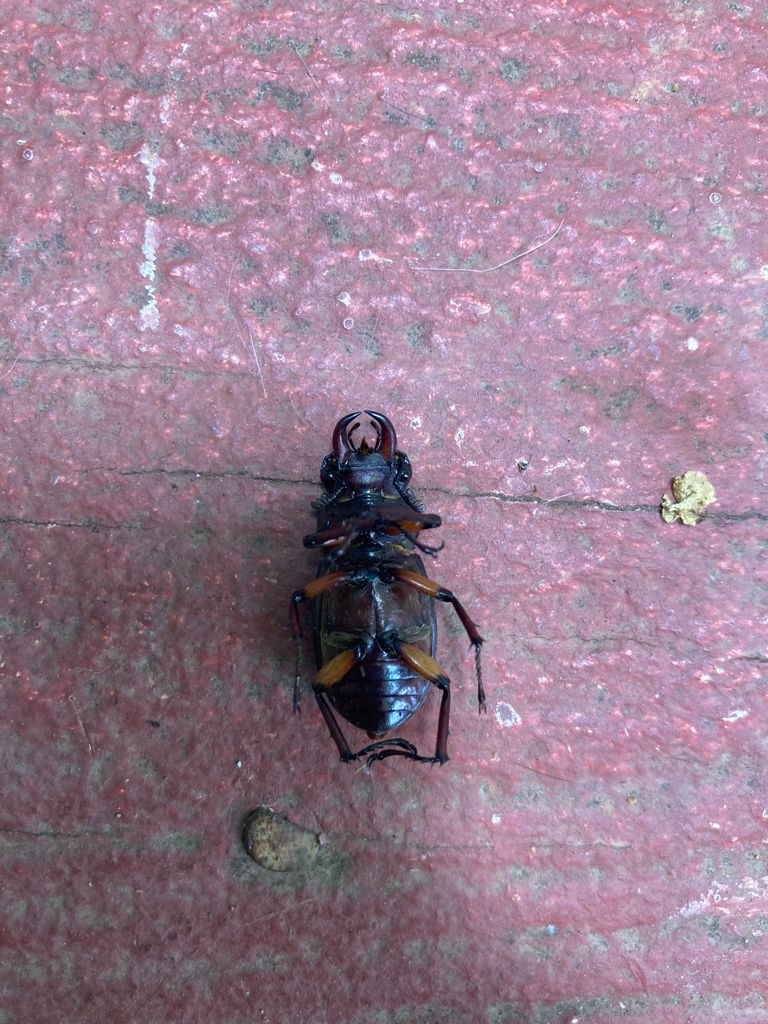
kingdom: Animalia
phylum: Arthropoda
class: Insecta
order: Coleoptera
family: Lucanidae
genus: Lucanus
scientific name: Lucanus capreolus
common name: Stag beetle
